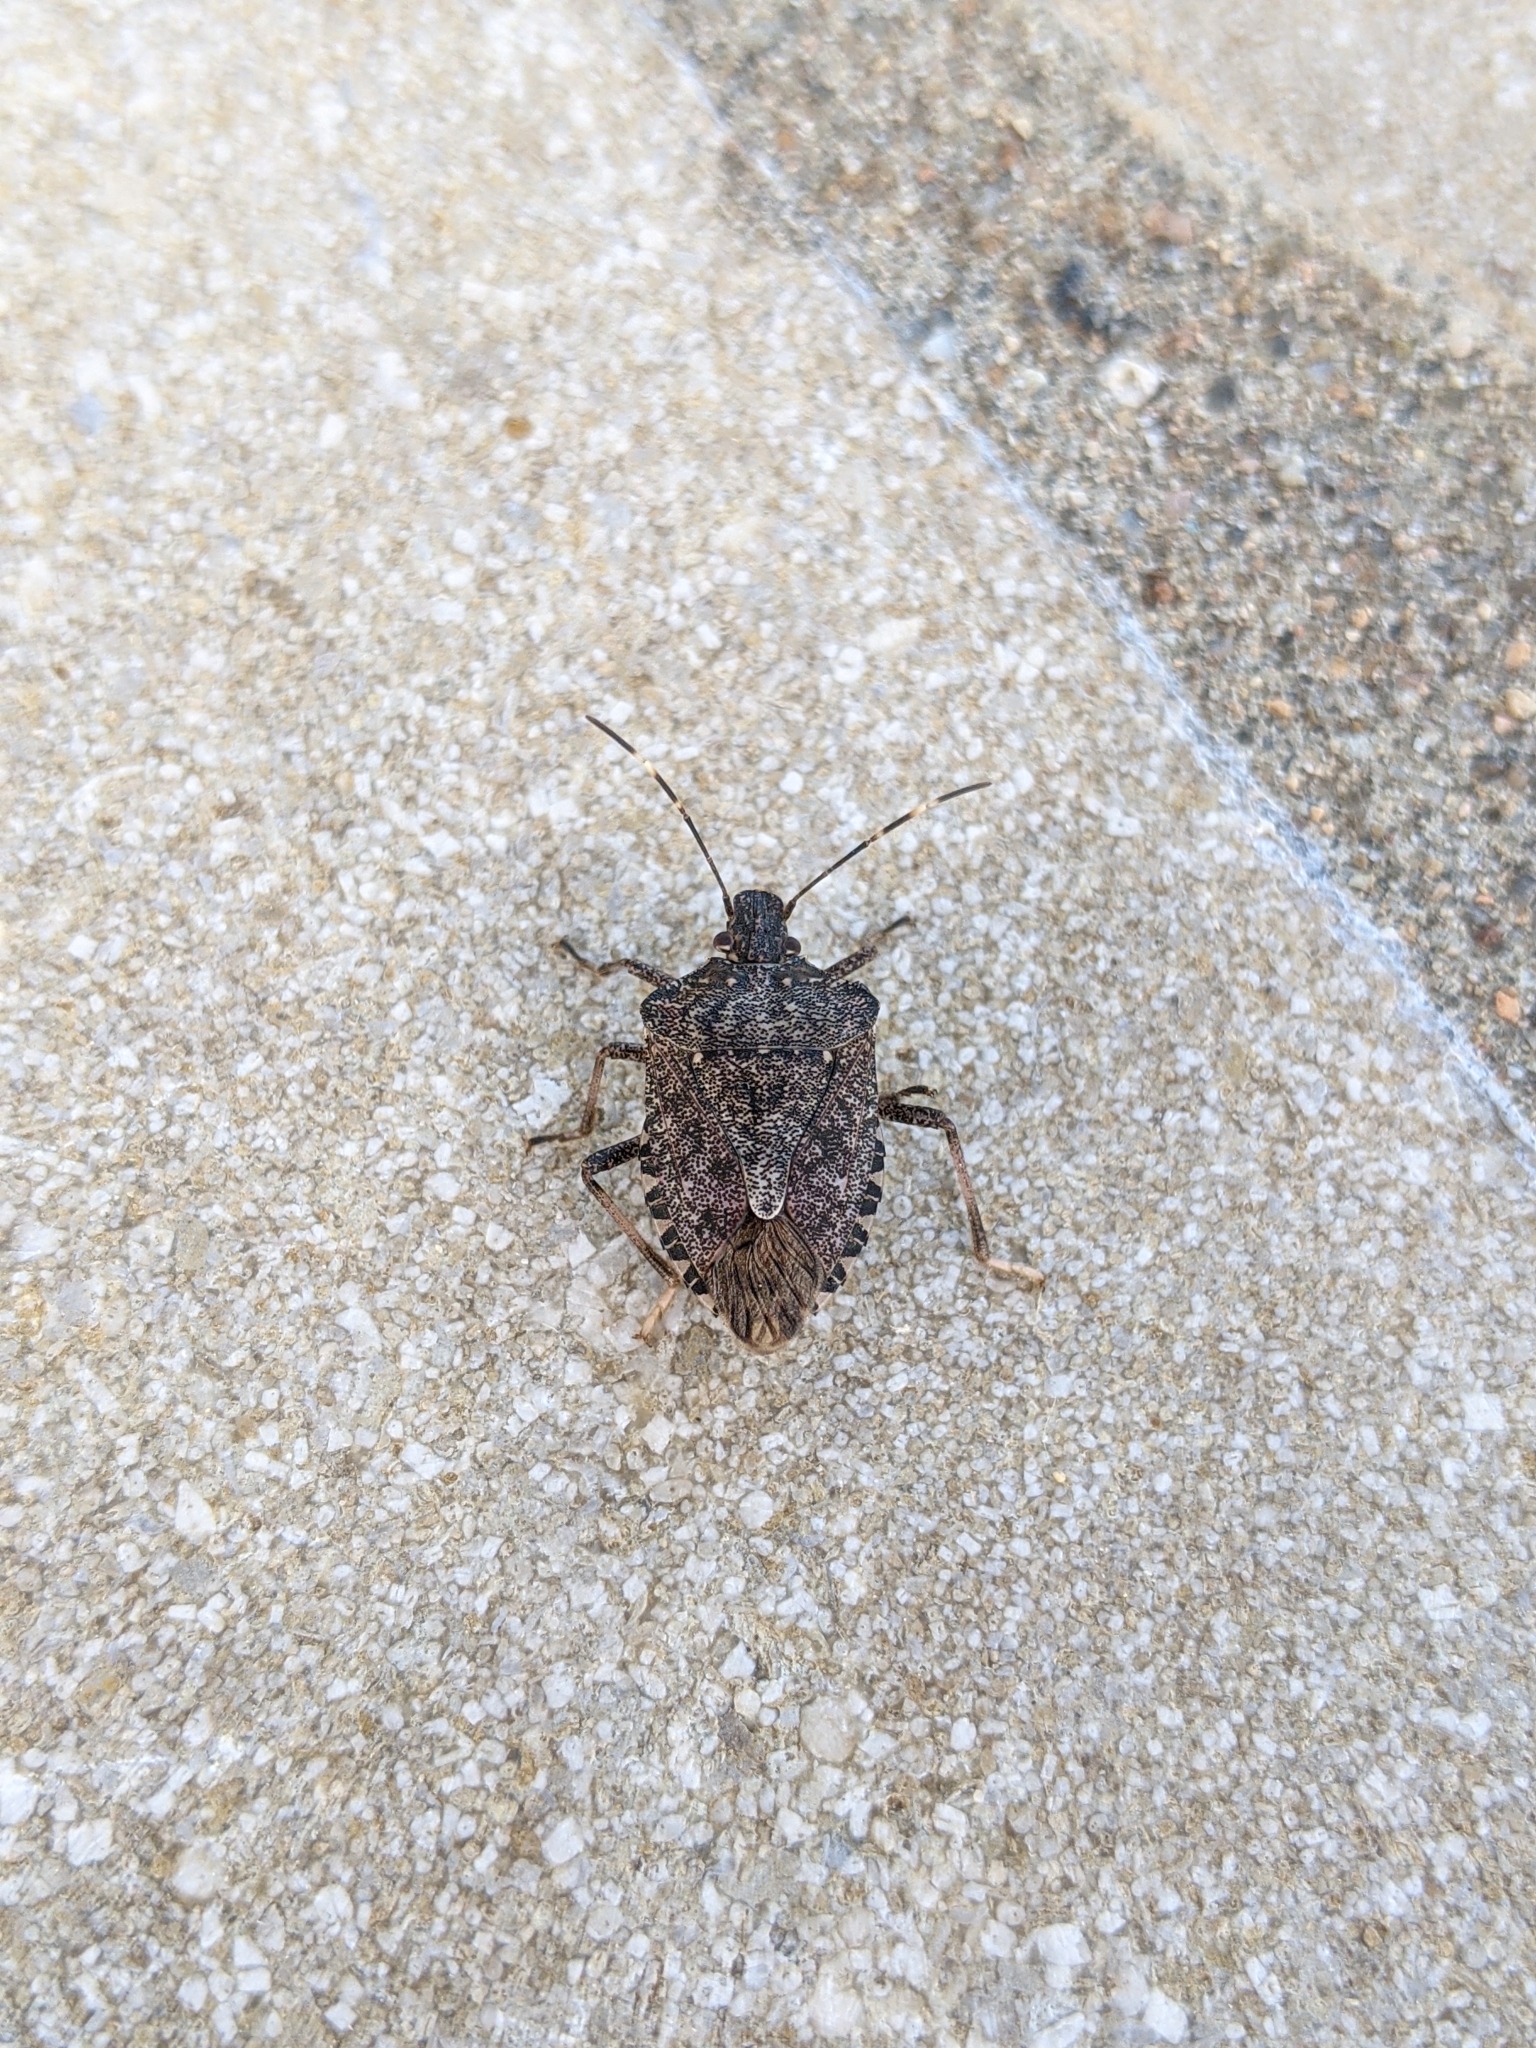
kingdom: Animalia
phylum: Arthropoda
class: Insecta
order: Hemiptera
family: Pentatomidae
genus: Halyomorpha
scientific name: Halyomorpha halys
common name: Brown marmorated stink bug
